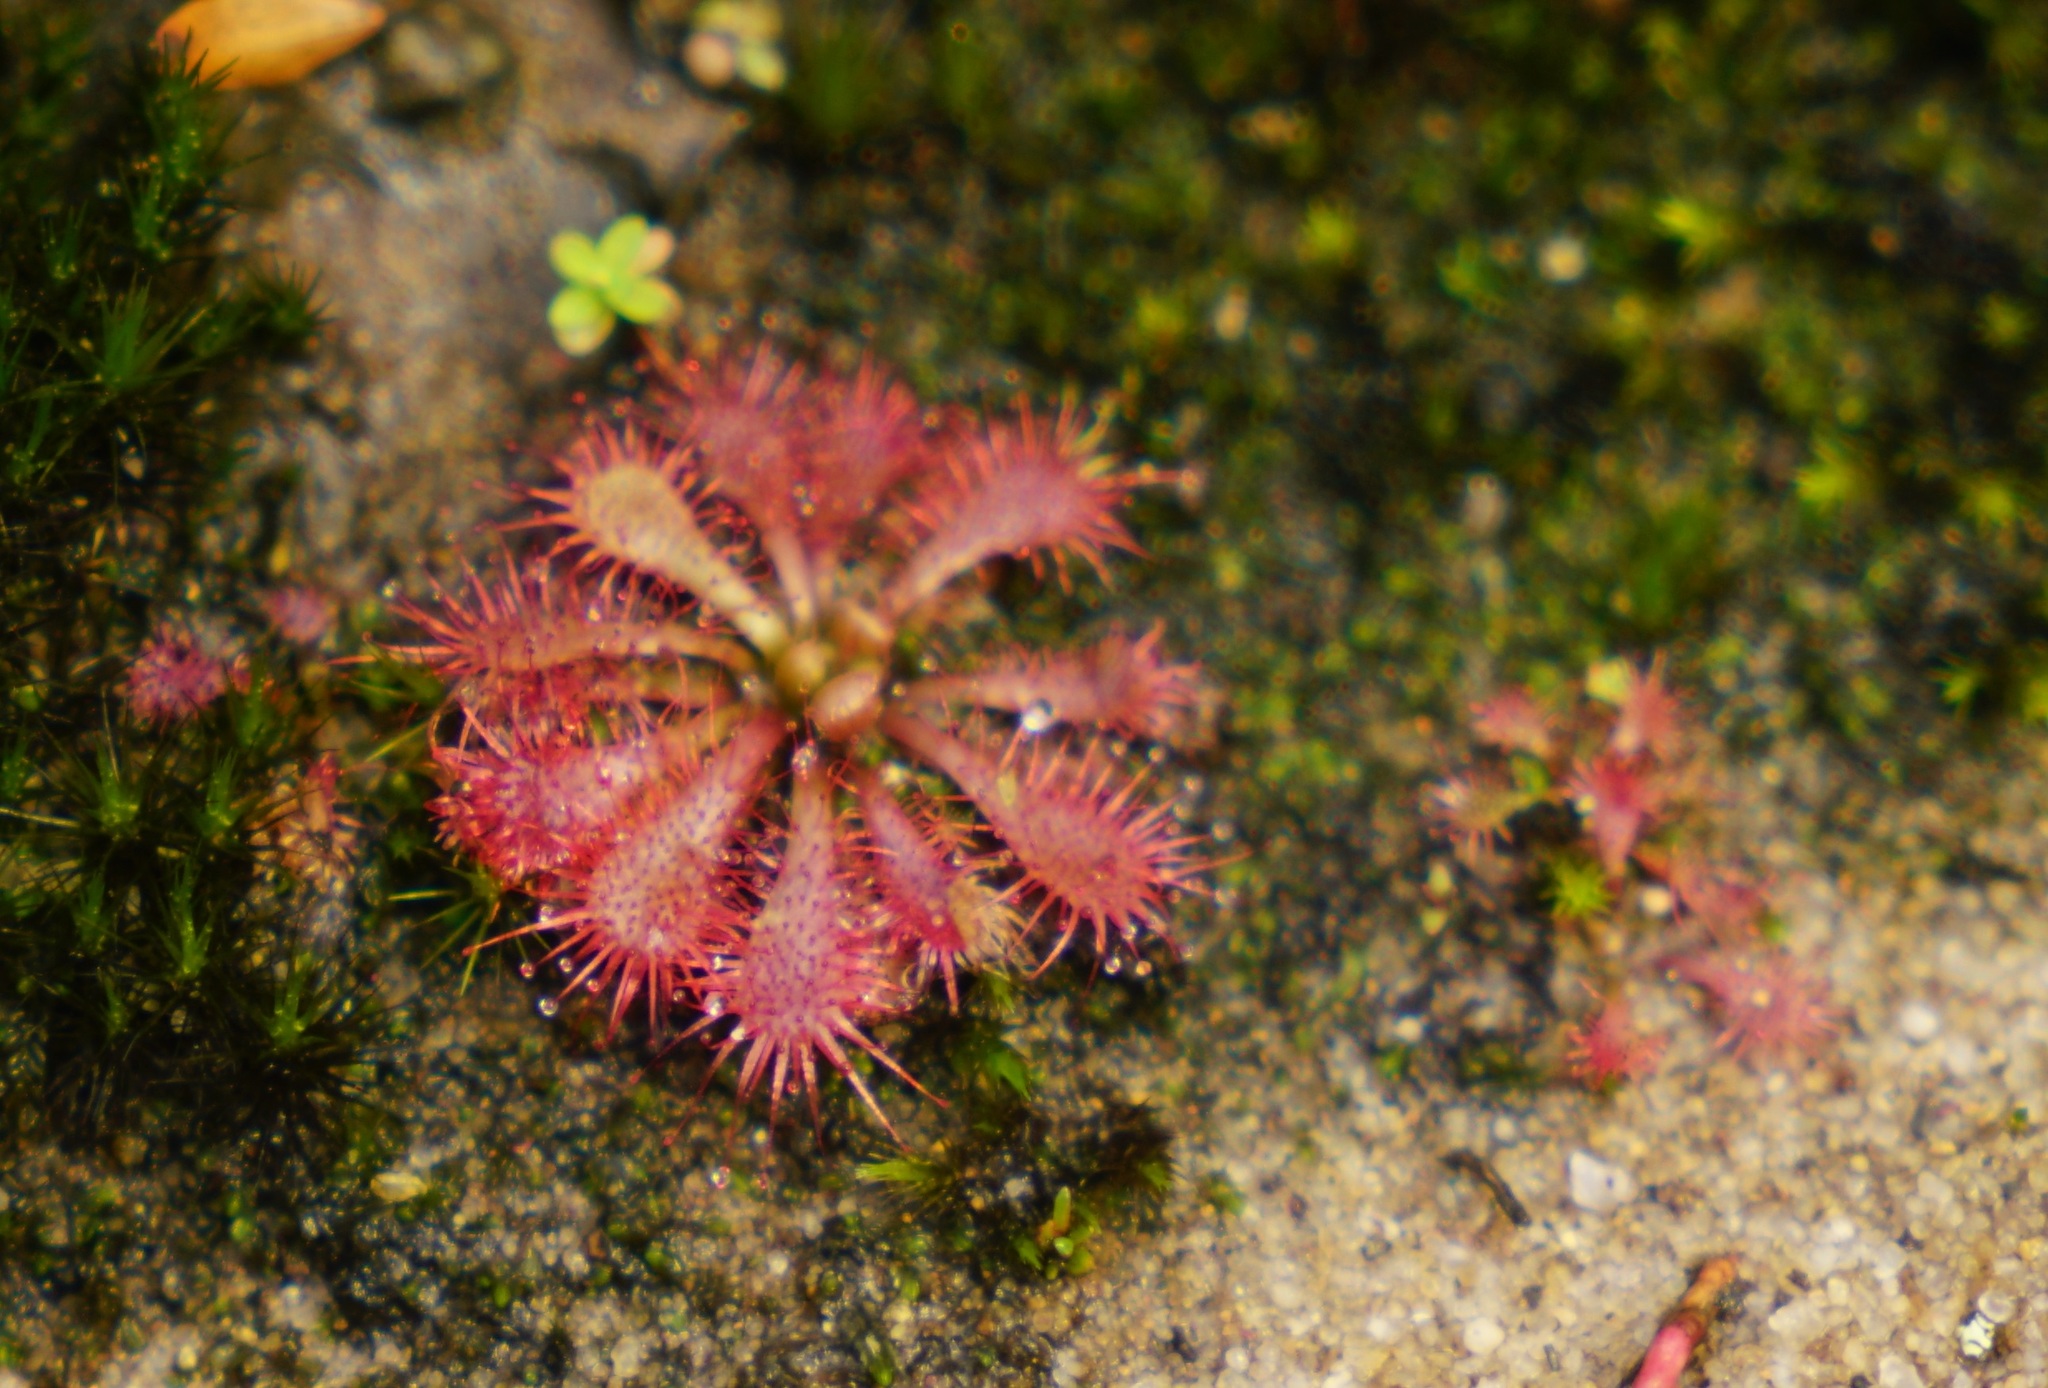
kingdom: Plantae
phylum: Tracheophyta
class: Magnoliopsida
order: Caryophyllales
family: Droseraceae
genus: Drosera
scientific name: Drosera spatulata
